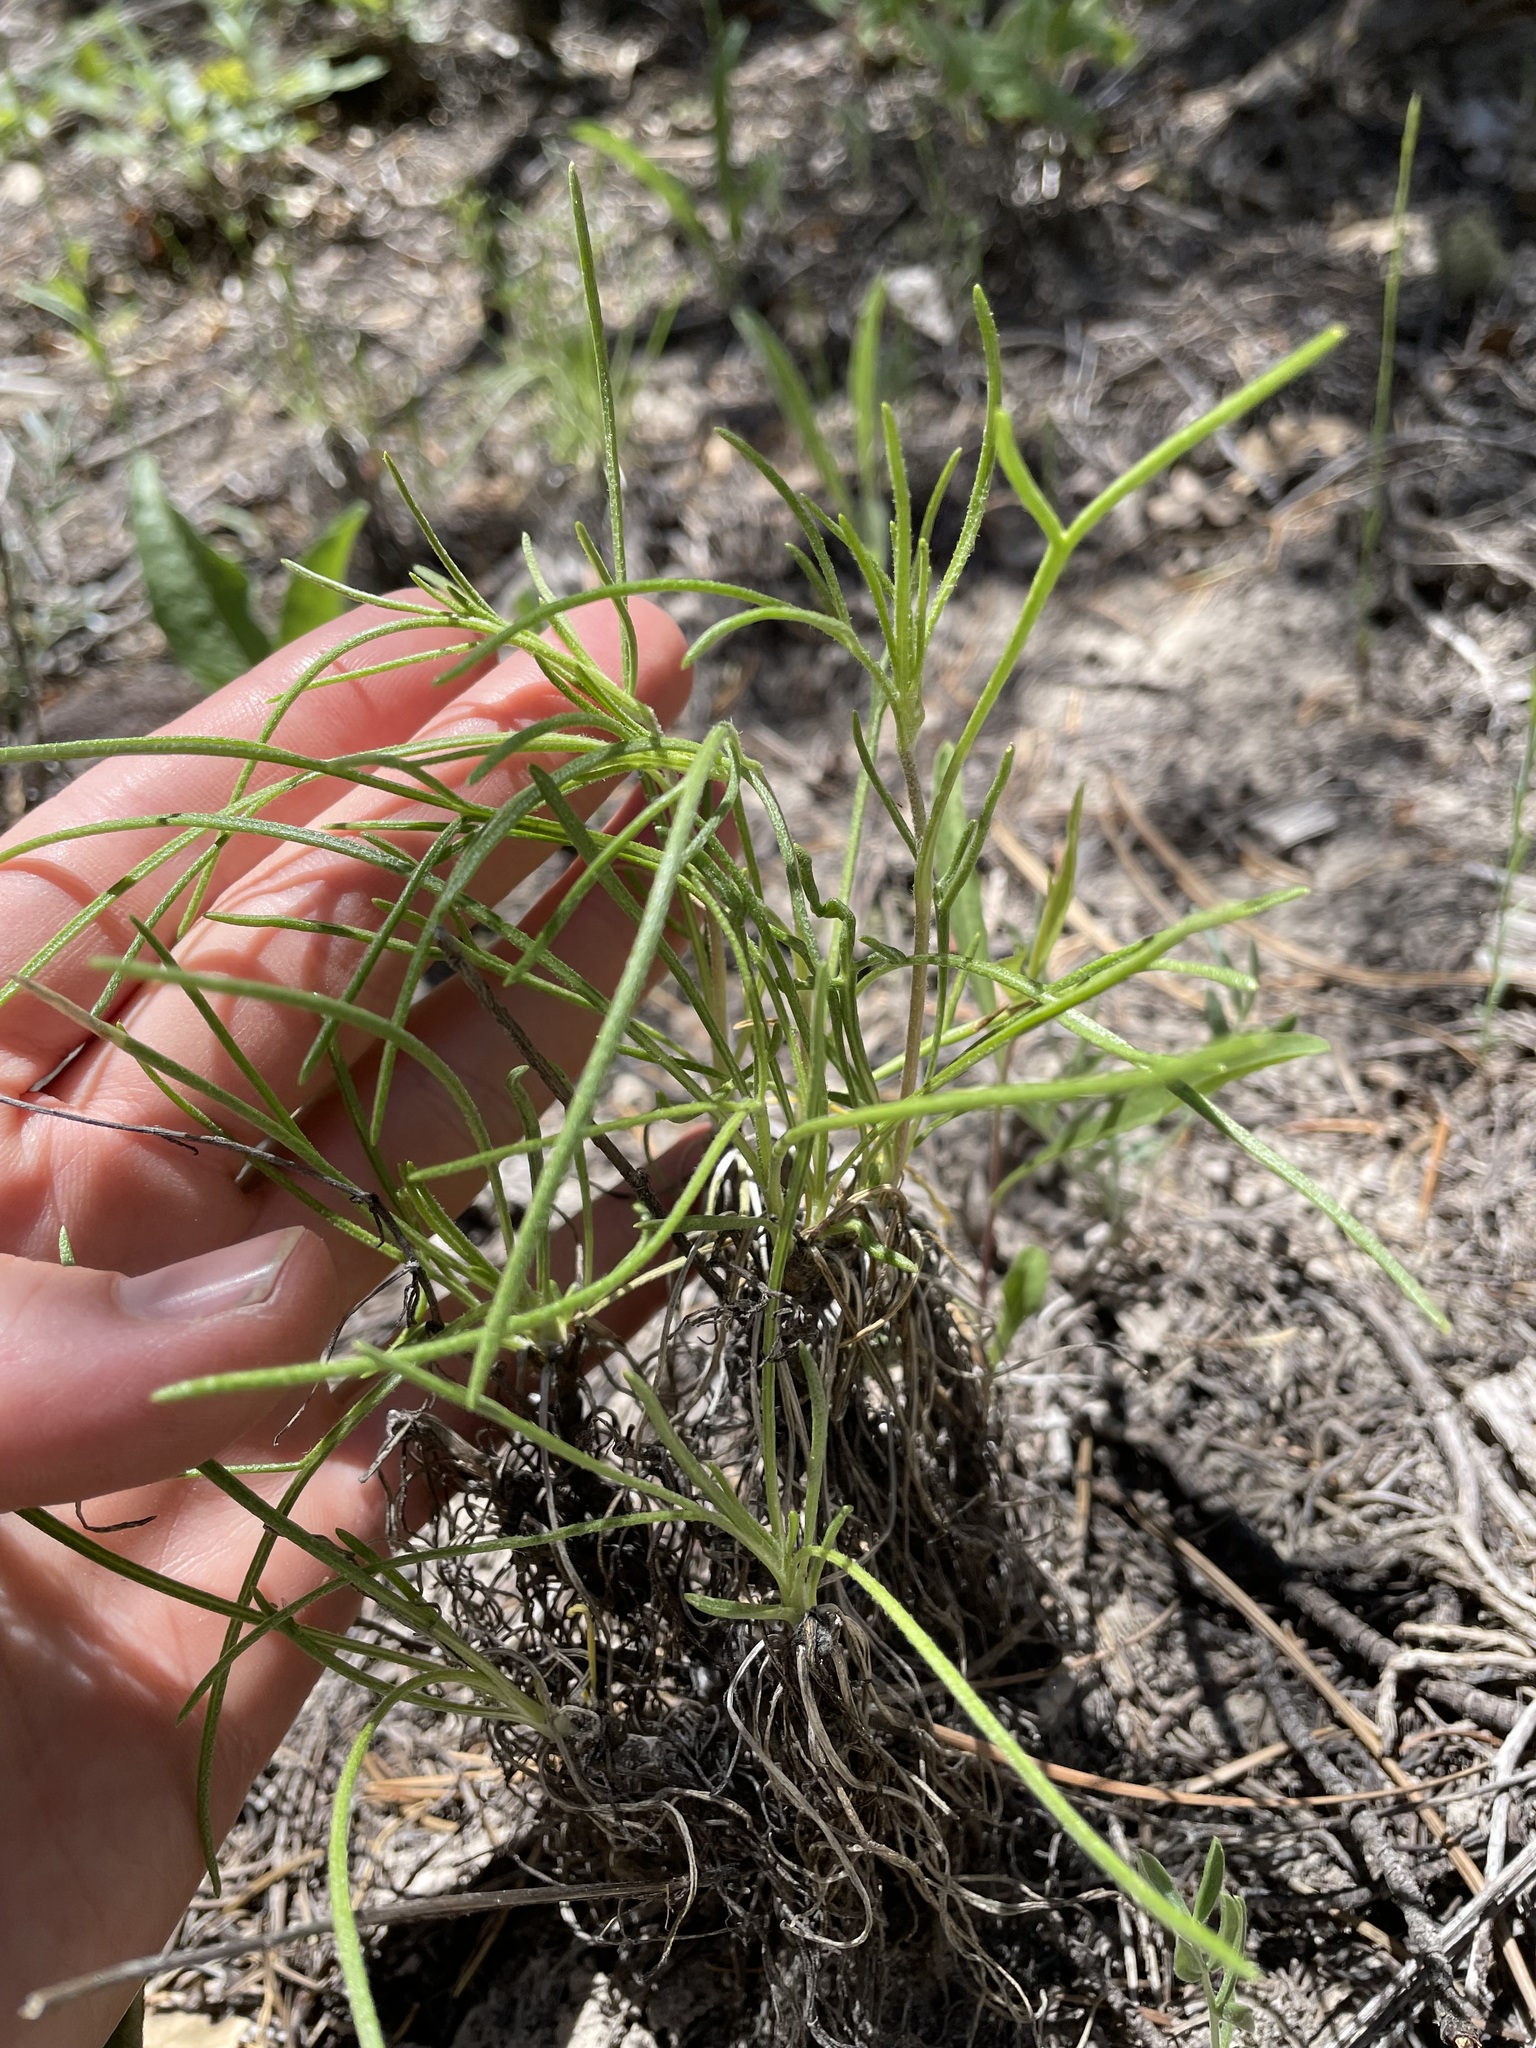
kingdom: Plantae
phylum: Tracheophyta
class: Magnoliopsida
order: Asterales
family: Asteraceae
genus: Hymenoxys
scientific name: Hymenoxys richardsonii
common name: Pingue rubberweed
